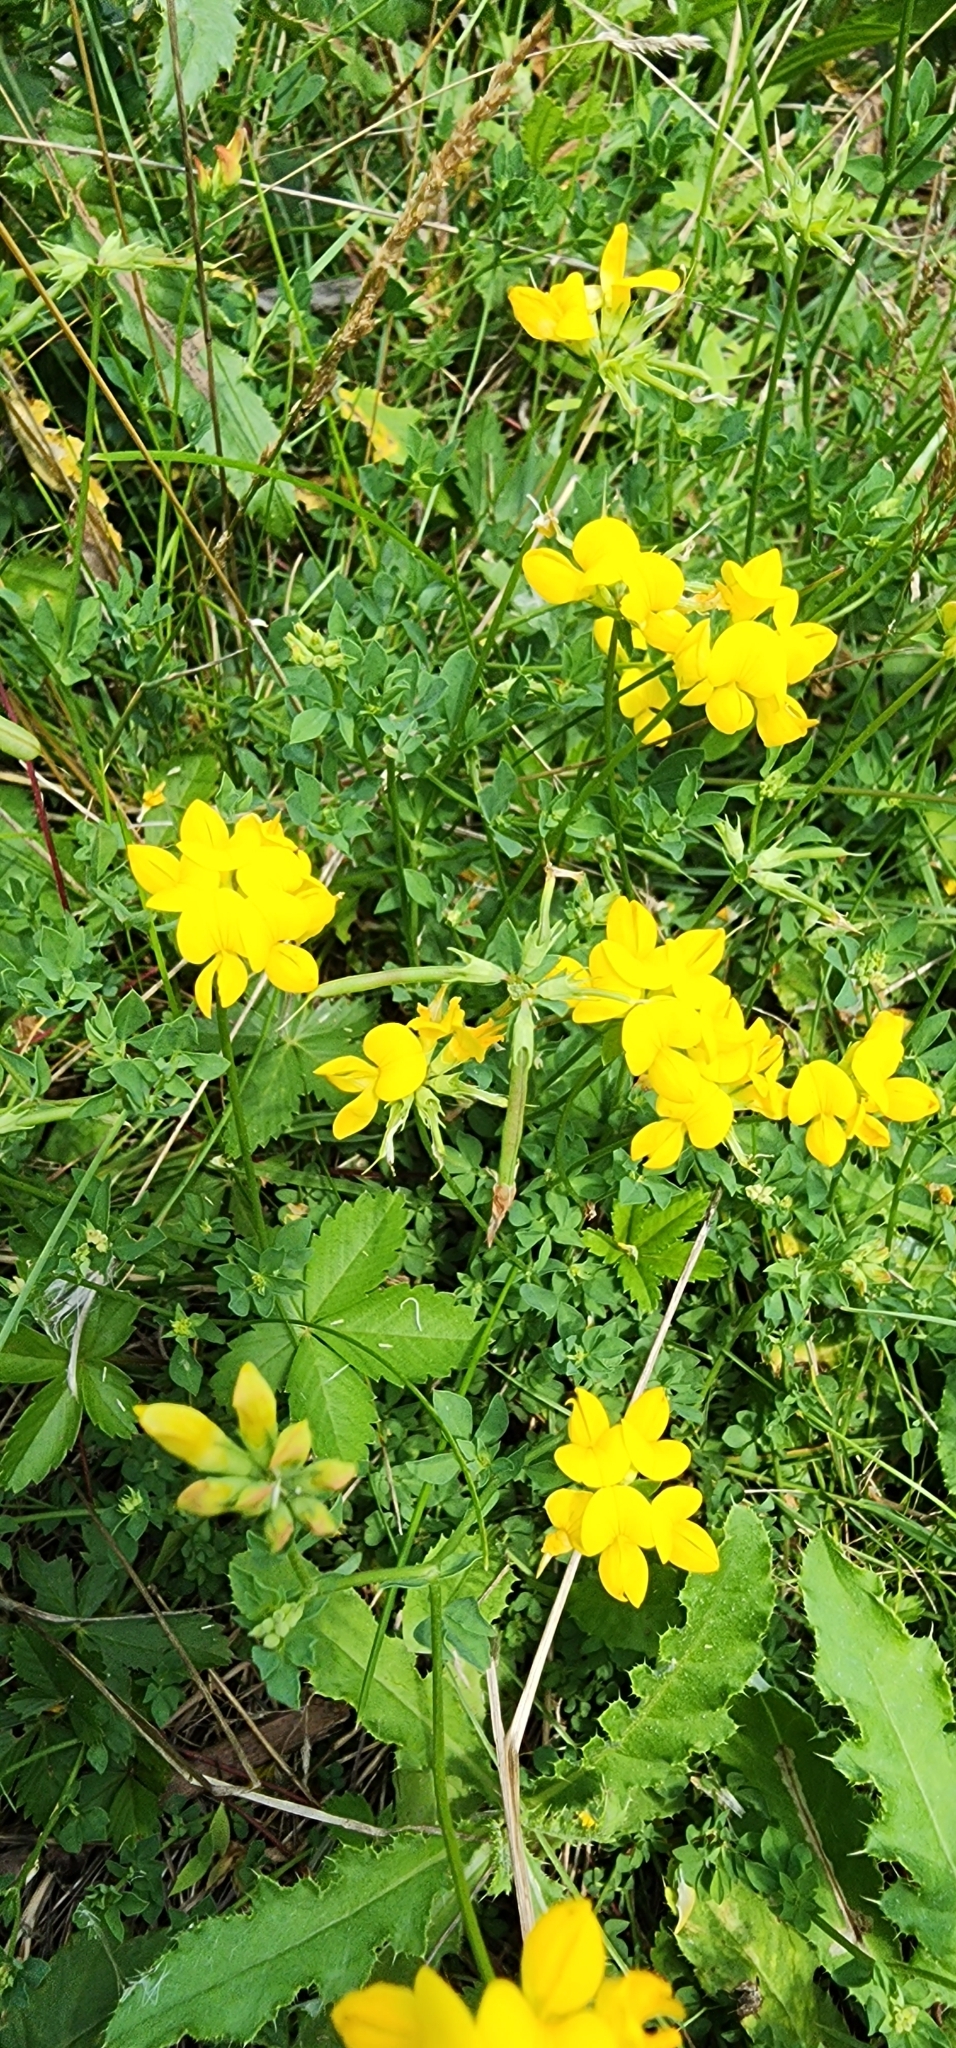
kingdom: Plantae
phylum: Tracheophyta
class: Magnoliopsida
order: Fabales
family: Fabaceae
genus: Lotus
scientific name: Lotus corniculatus
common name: Common bird's-foot-trefoil
